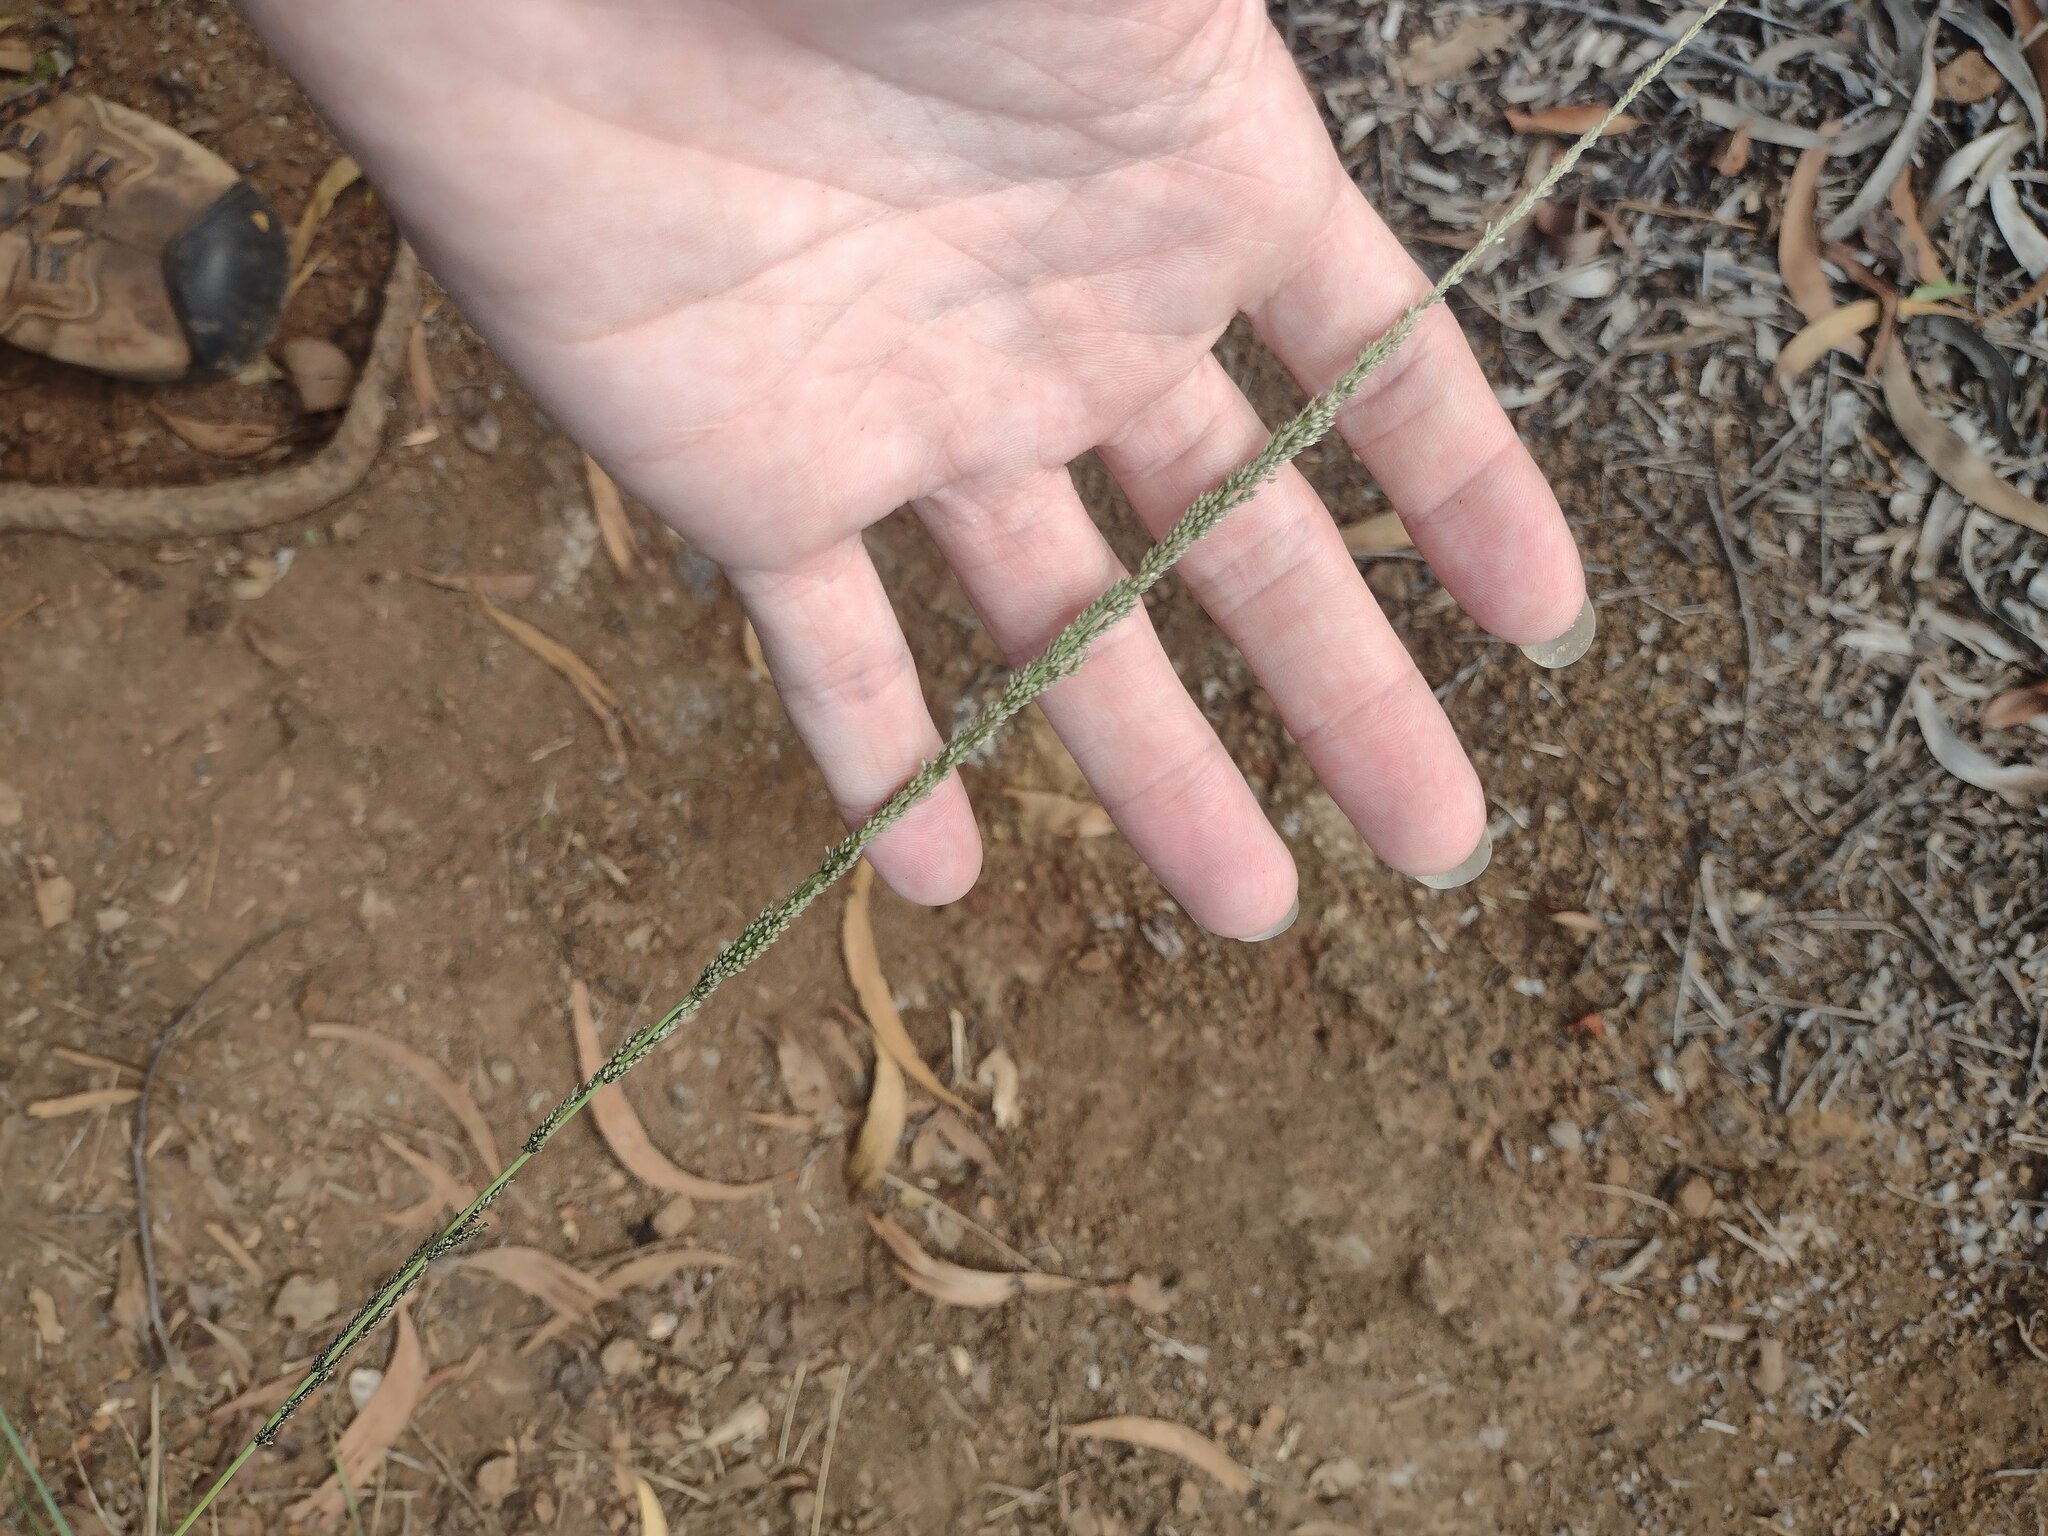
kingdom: Plantae
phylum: Tracheophyta
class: Liliopsida
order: Poales
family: Poaceae
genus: Sporobolus
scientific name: Sporobolus fertilis
